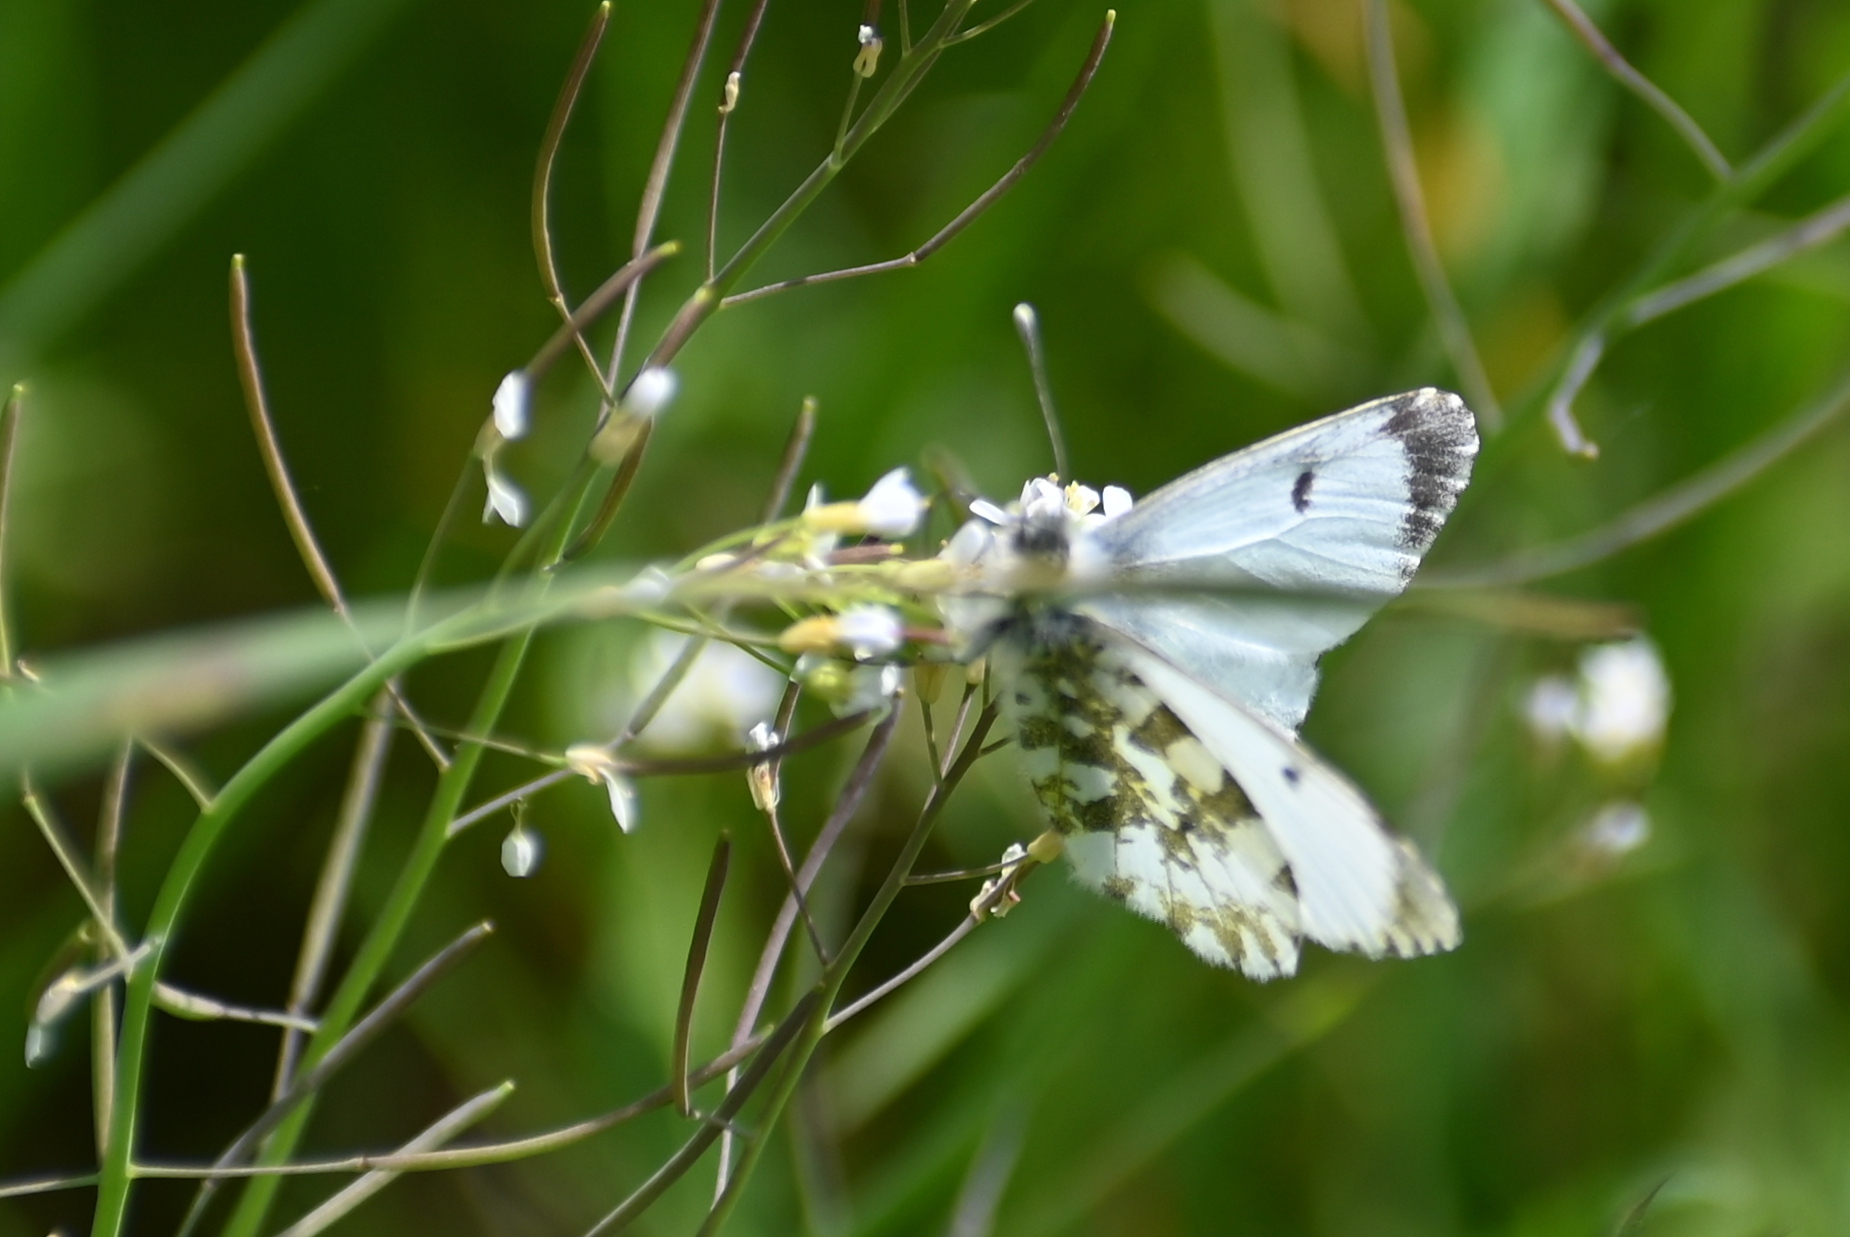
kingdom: Animalia
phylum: Arthropoda
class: Insecta
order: Lepidoptera
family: Pieridae
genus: Anthocharis
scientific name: Anthocharis cardamines
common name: Orange-tip
